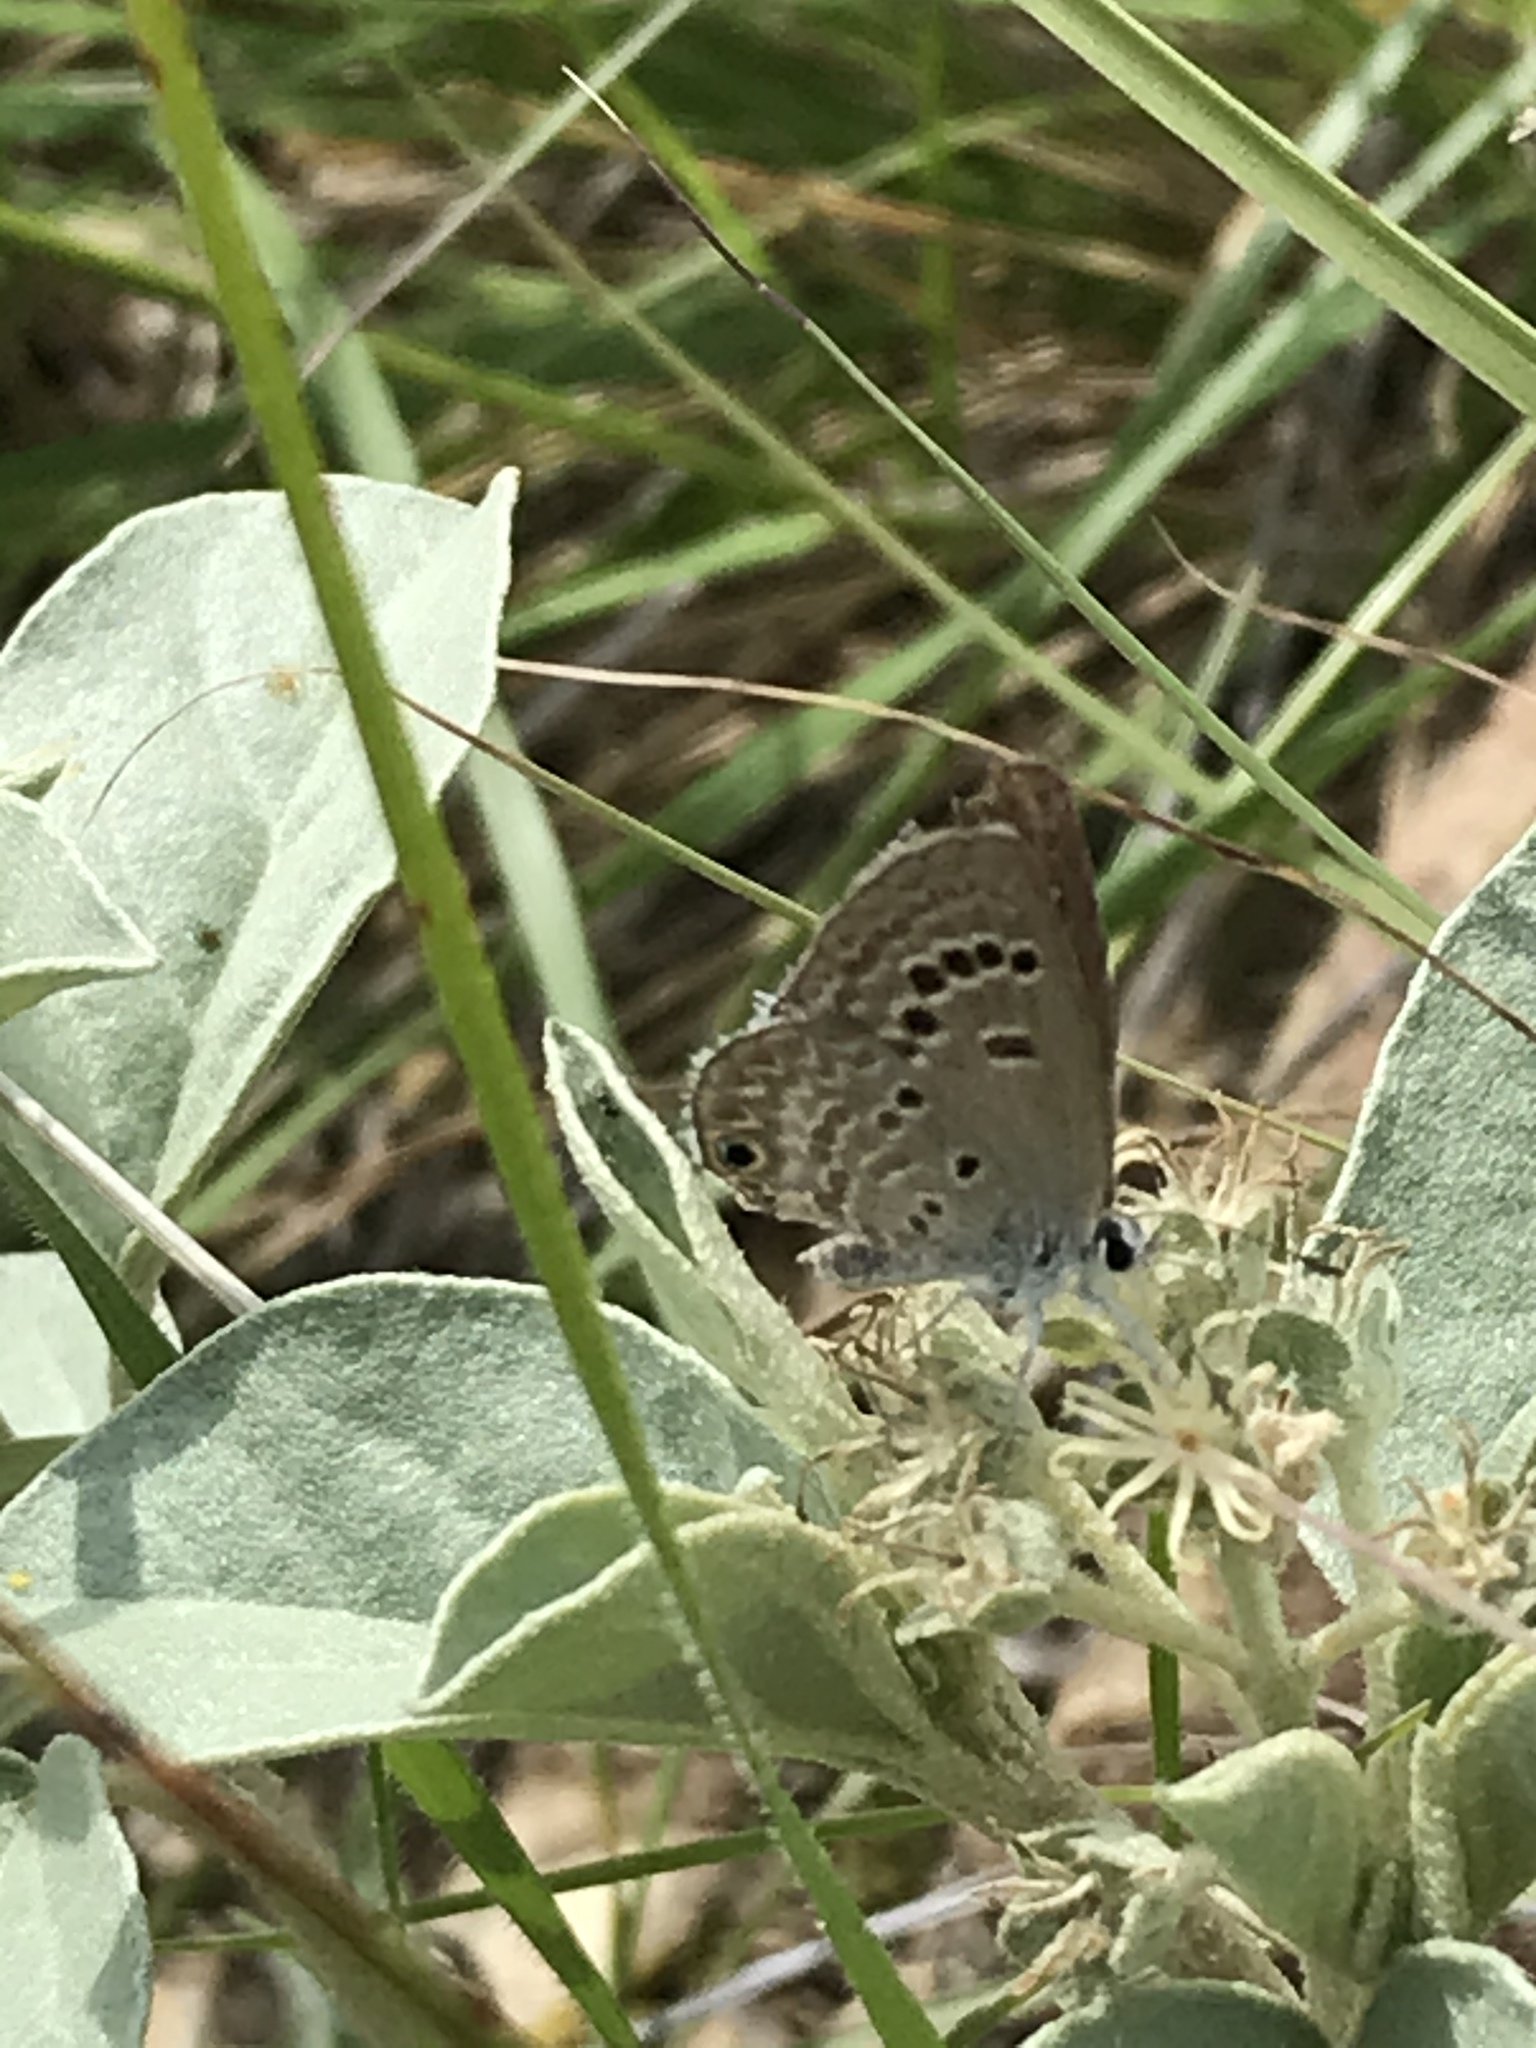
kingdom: Animalia
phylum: Arthropoda
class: Insecta
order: Lepidoptera
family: Lycaenidae
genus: Echinargus
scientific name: Echinargus isola
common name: Reakirt's blue
